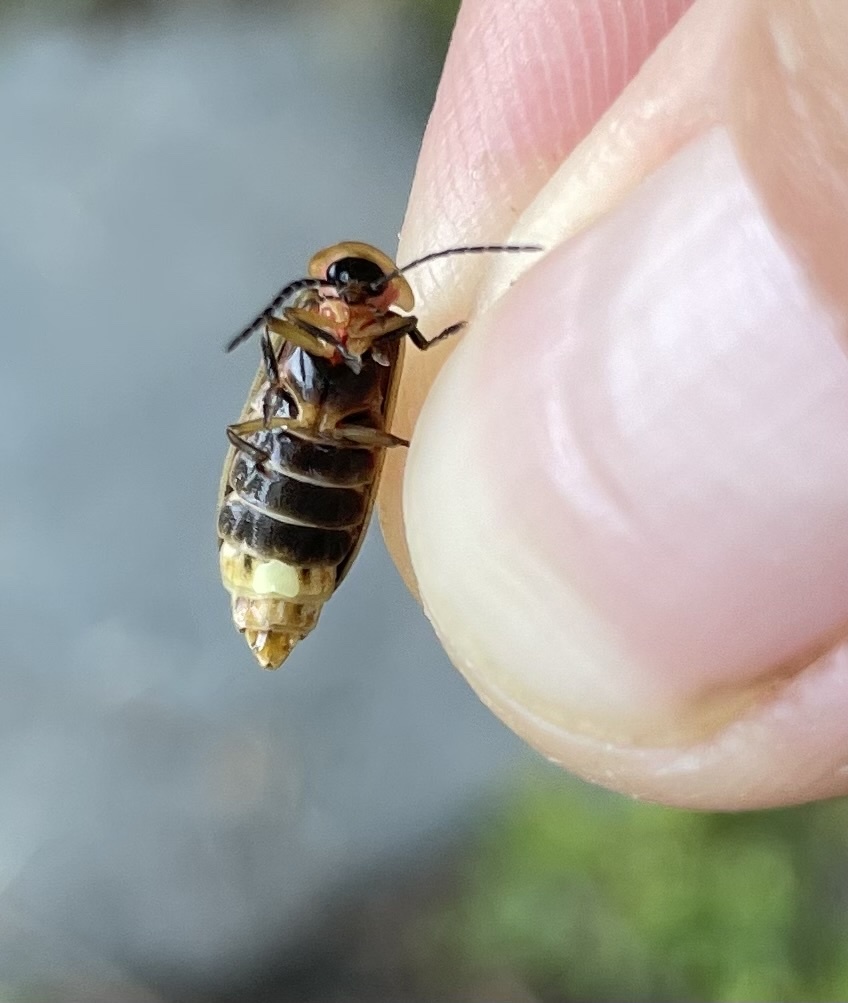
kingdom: Animalia
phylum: Arthropoda
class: Insecta
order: Coleoptera
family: Lampyridae
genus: Photinus
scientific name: Photinus pyralis
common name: Big dipper firefly
